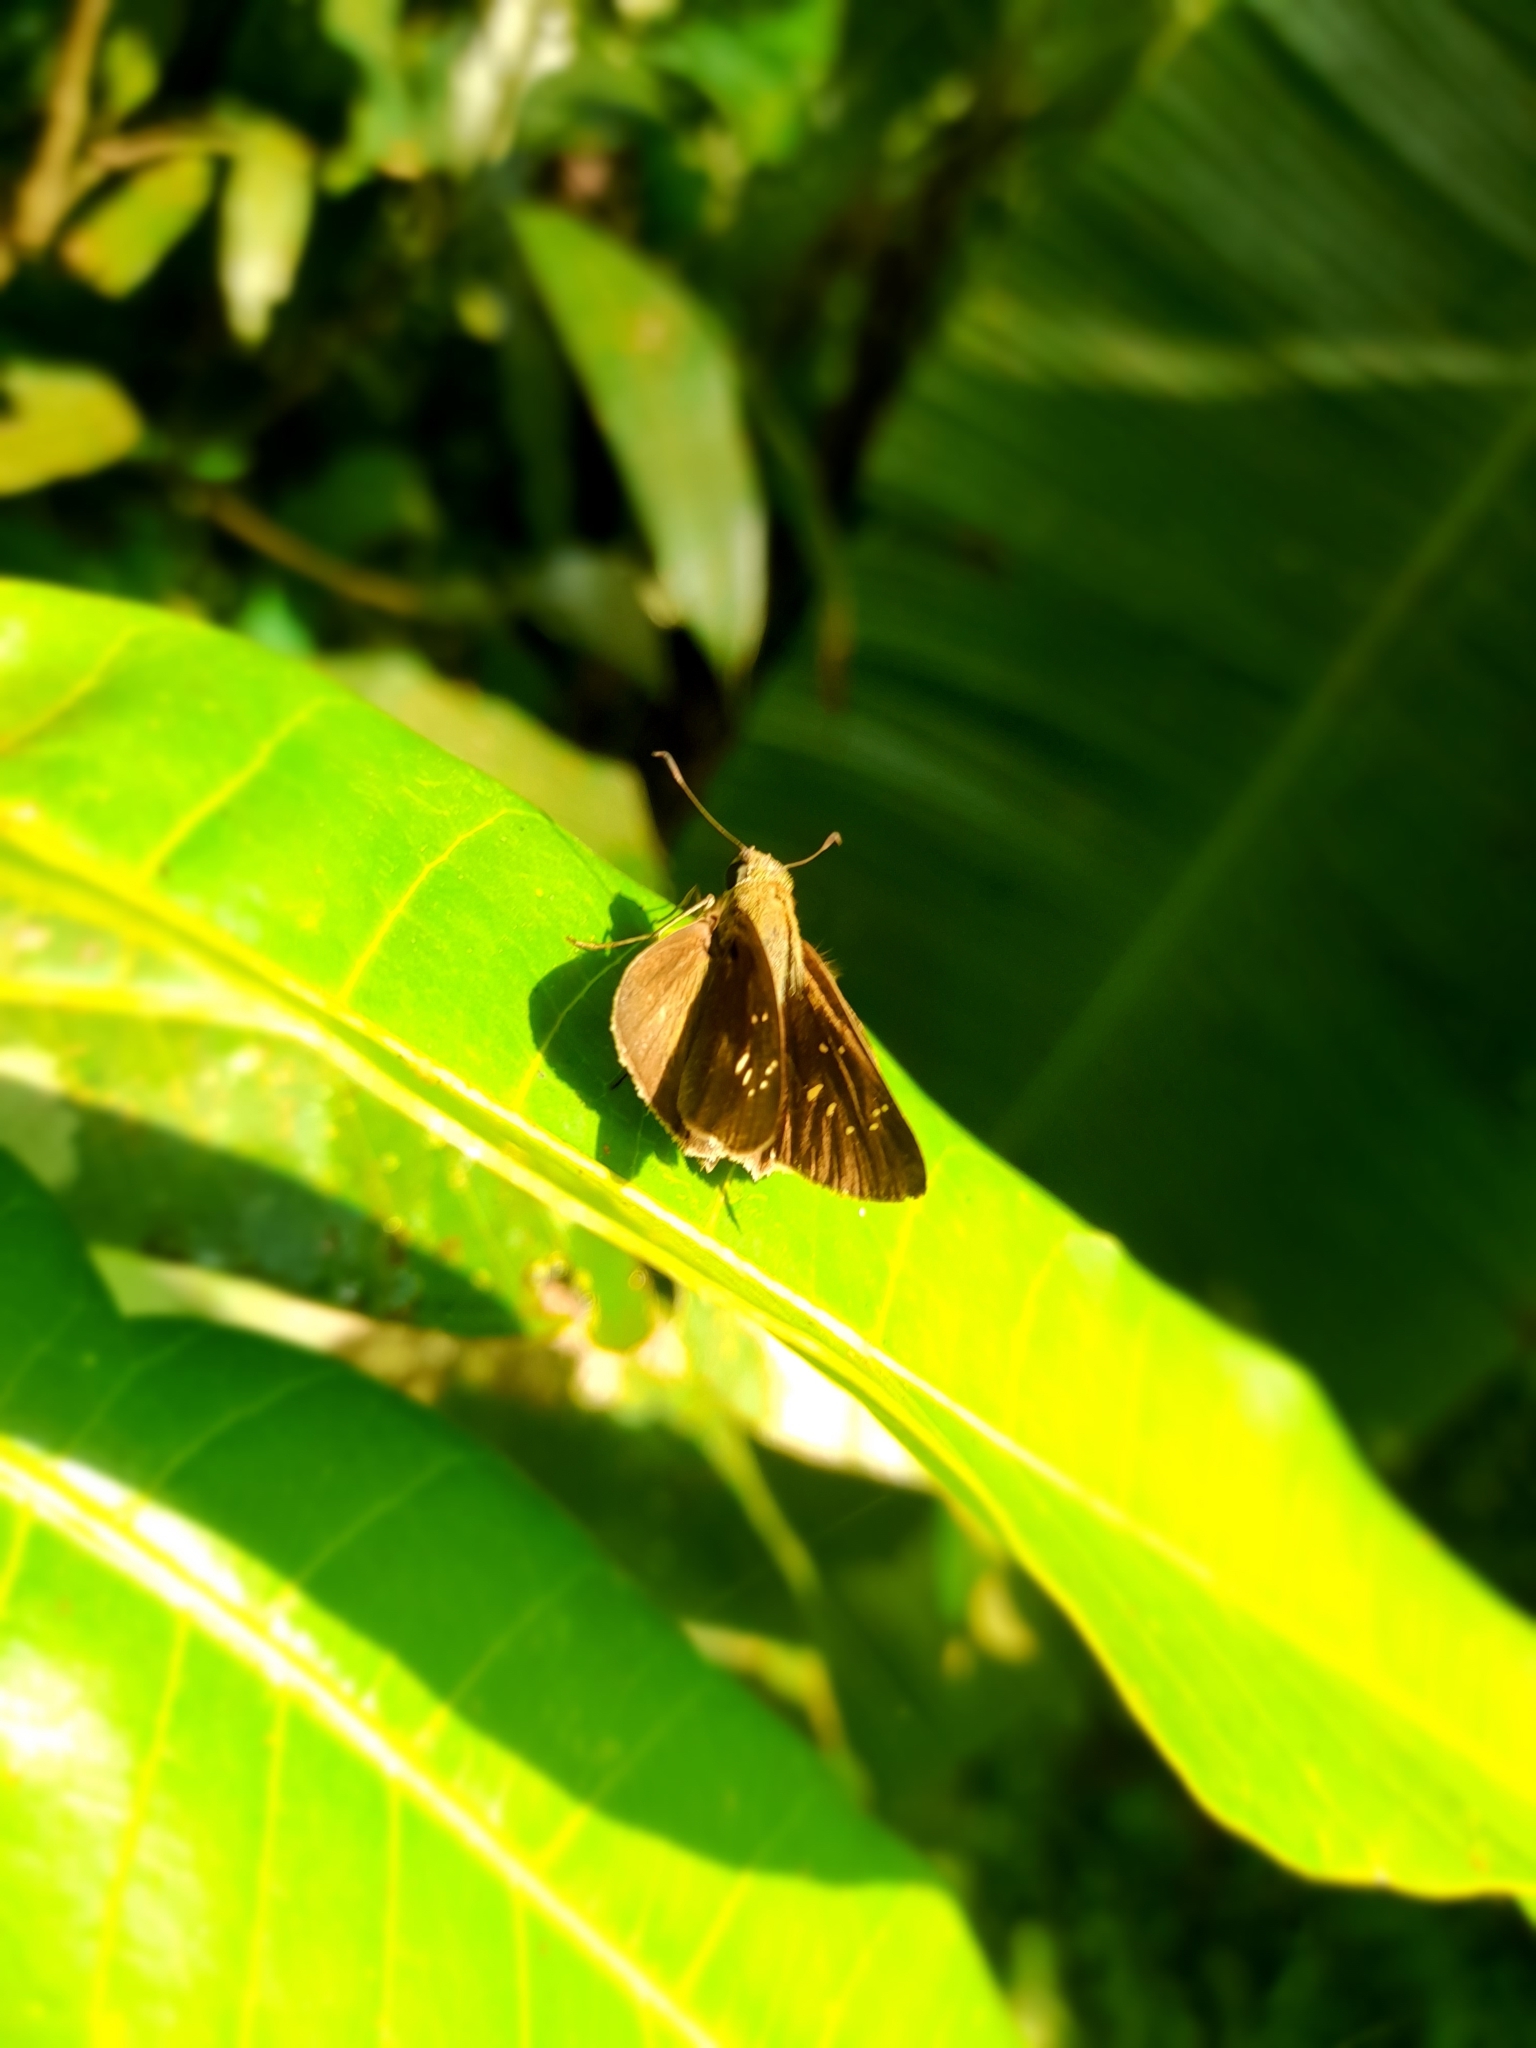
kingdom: Animalia
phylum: Arthropoda
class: Insecta
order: Lepidoptera
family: Hesperiidae
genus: Pelopidas
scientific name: Pelopidas agna
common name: Little branded swift
